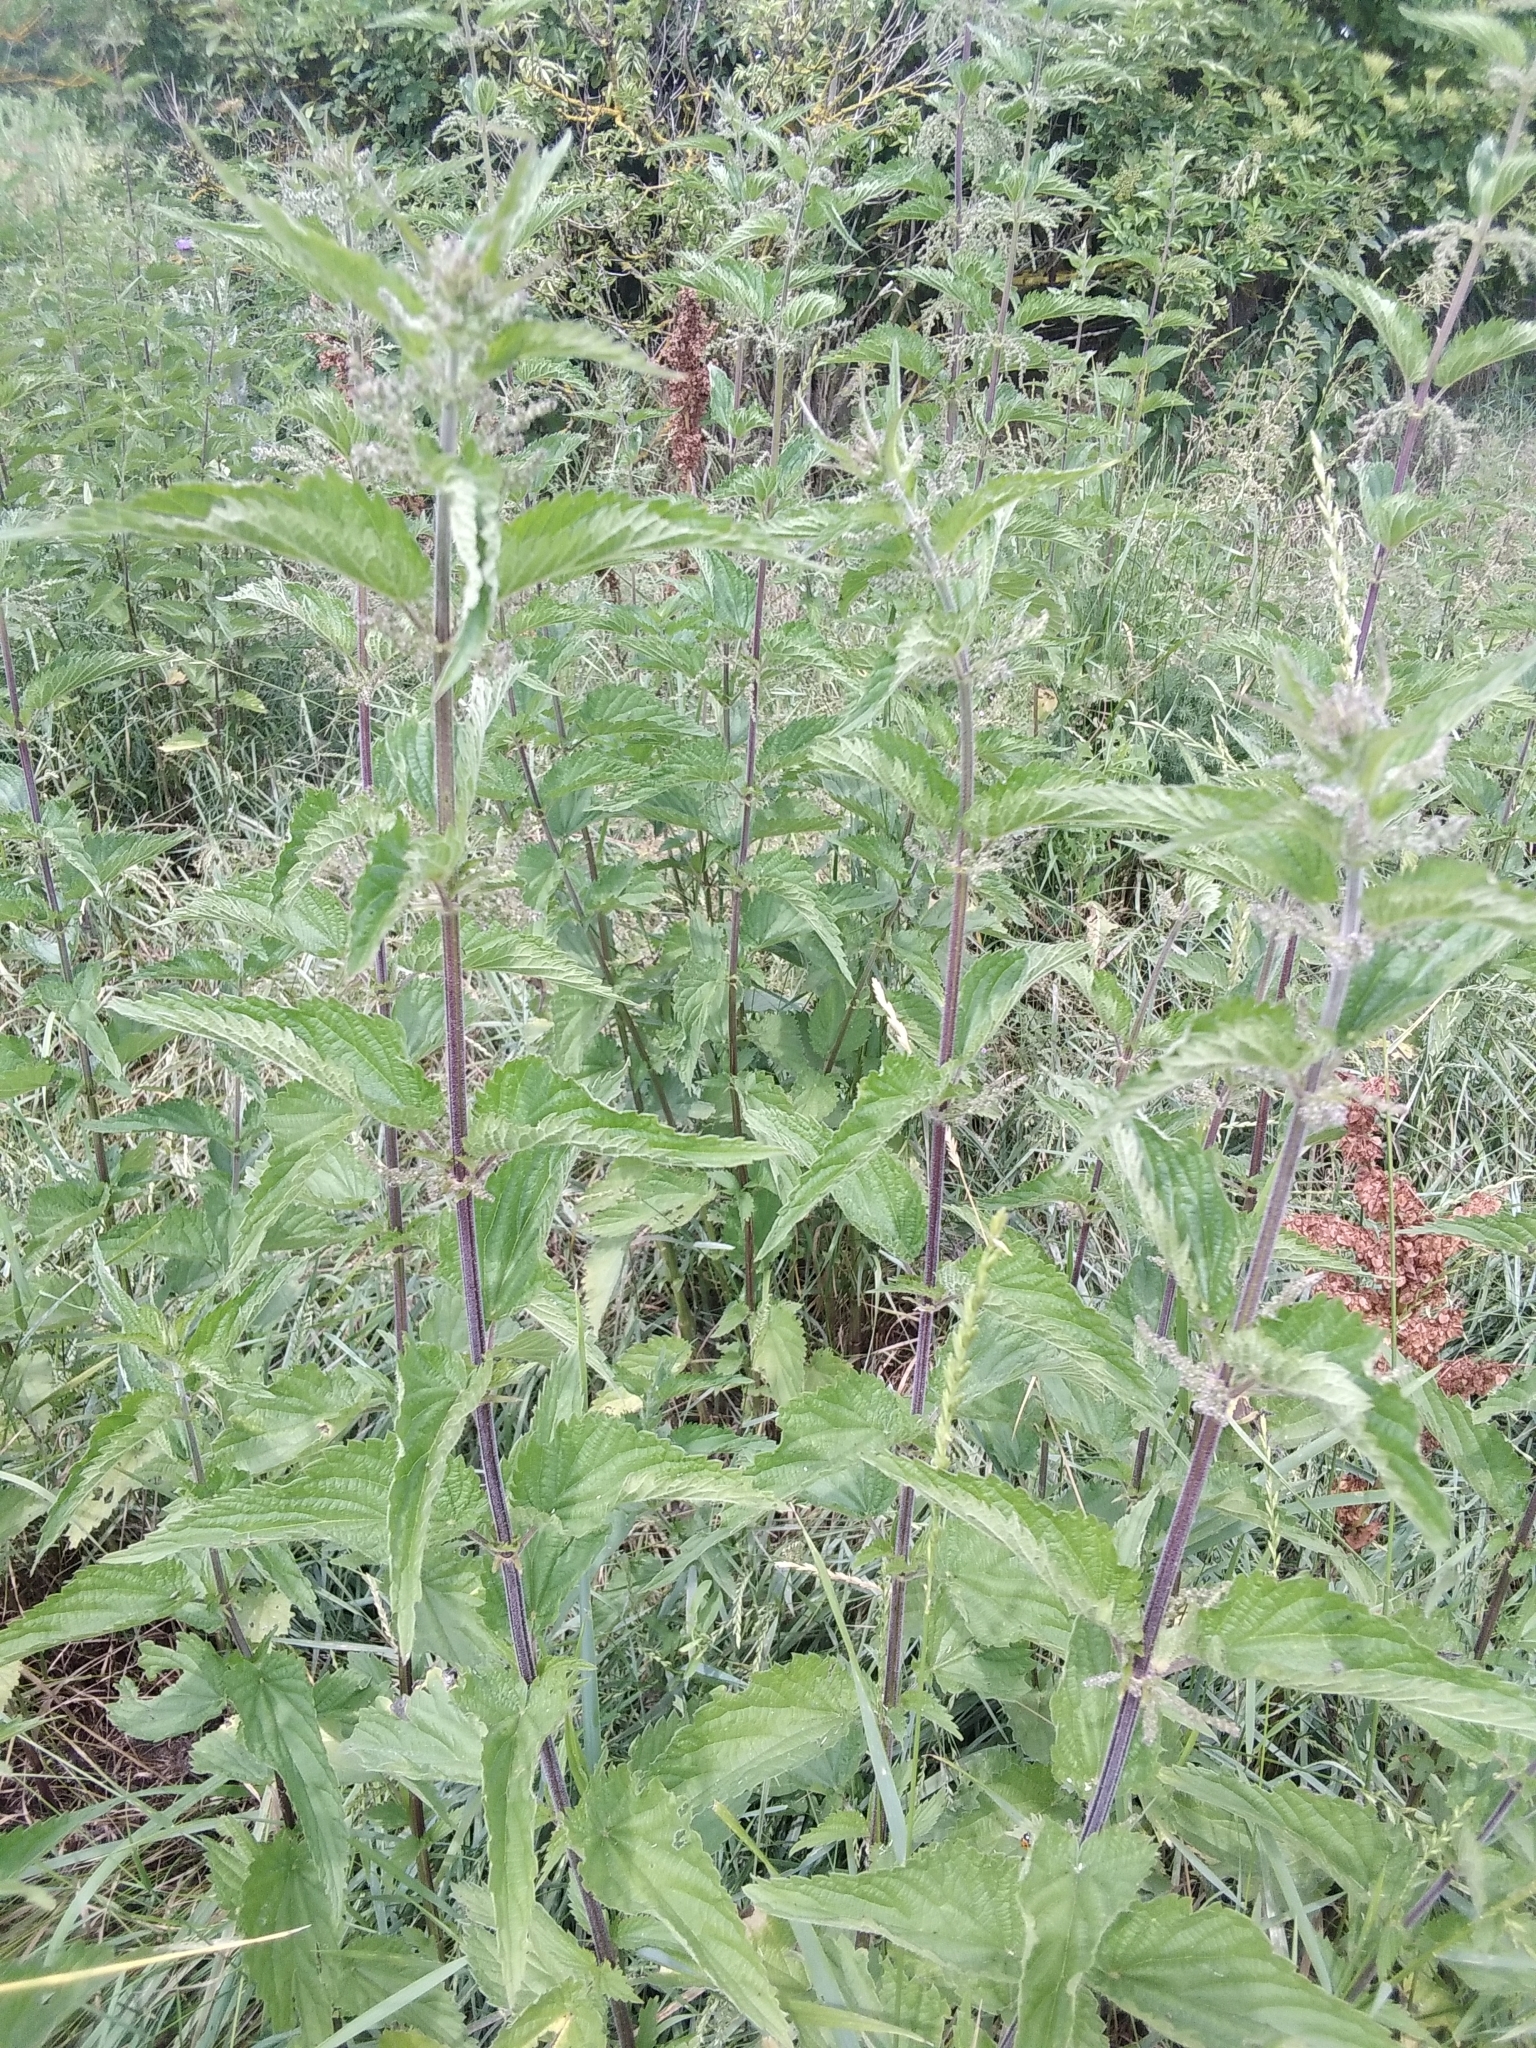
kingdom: Plantae
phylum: Tracheophyta
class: Magnoliopsida
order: Rosales
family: Urticaceae
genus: Urtica
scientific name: Urtica dioica
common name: Common nettle
